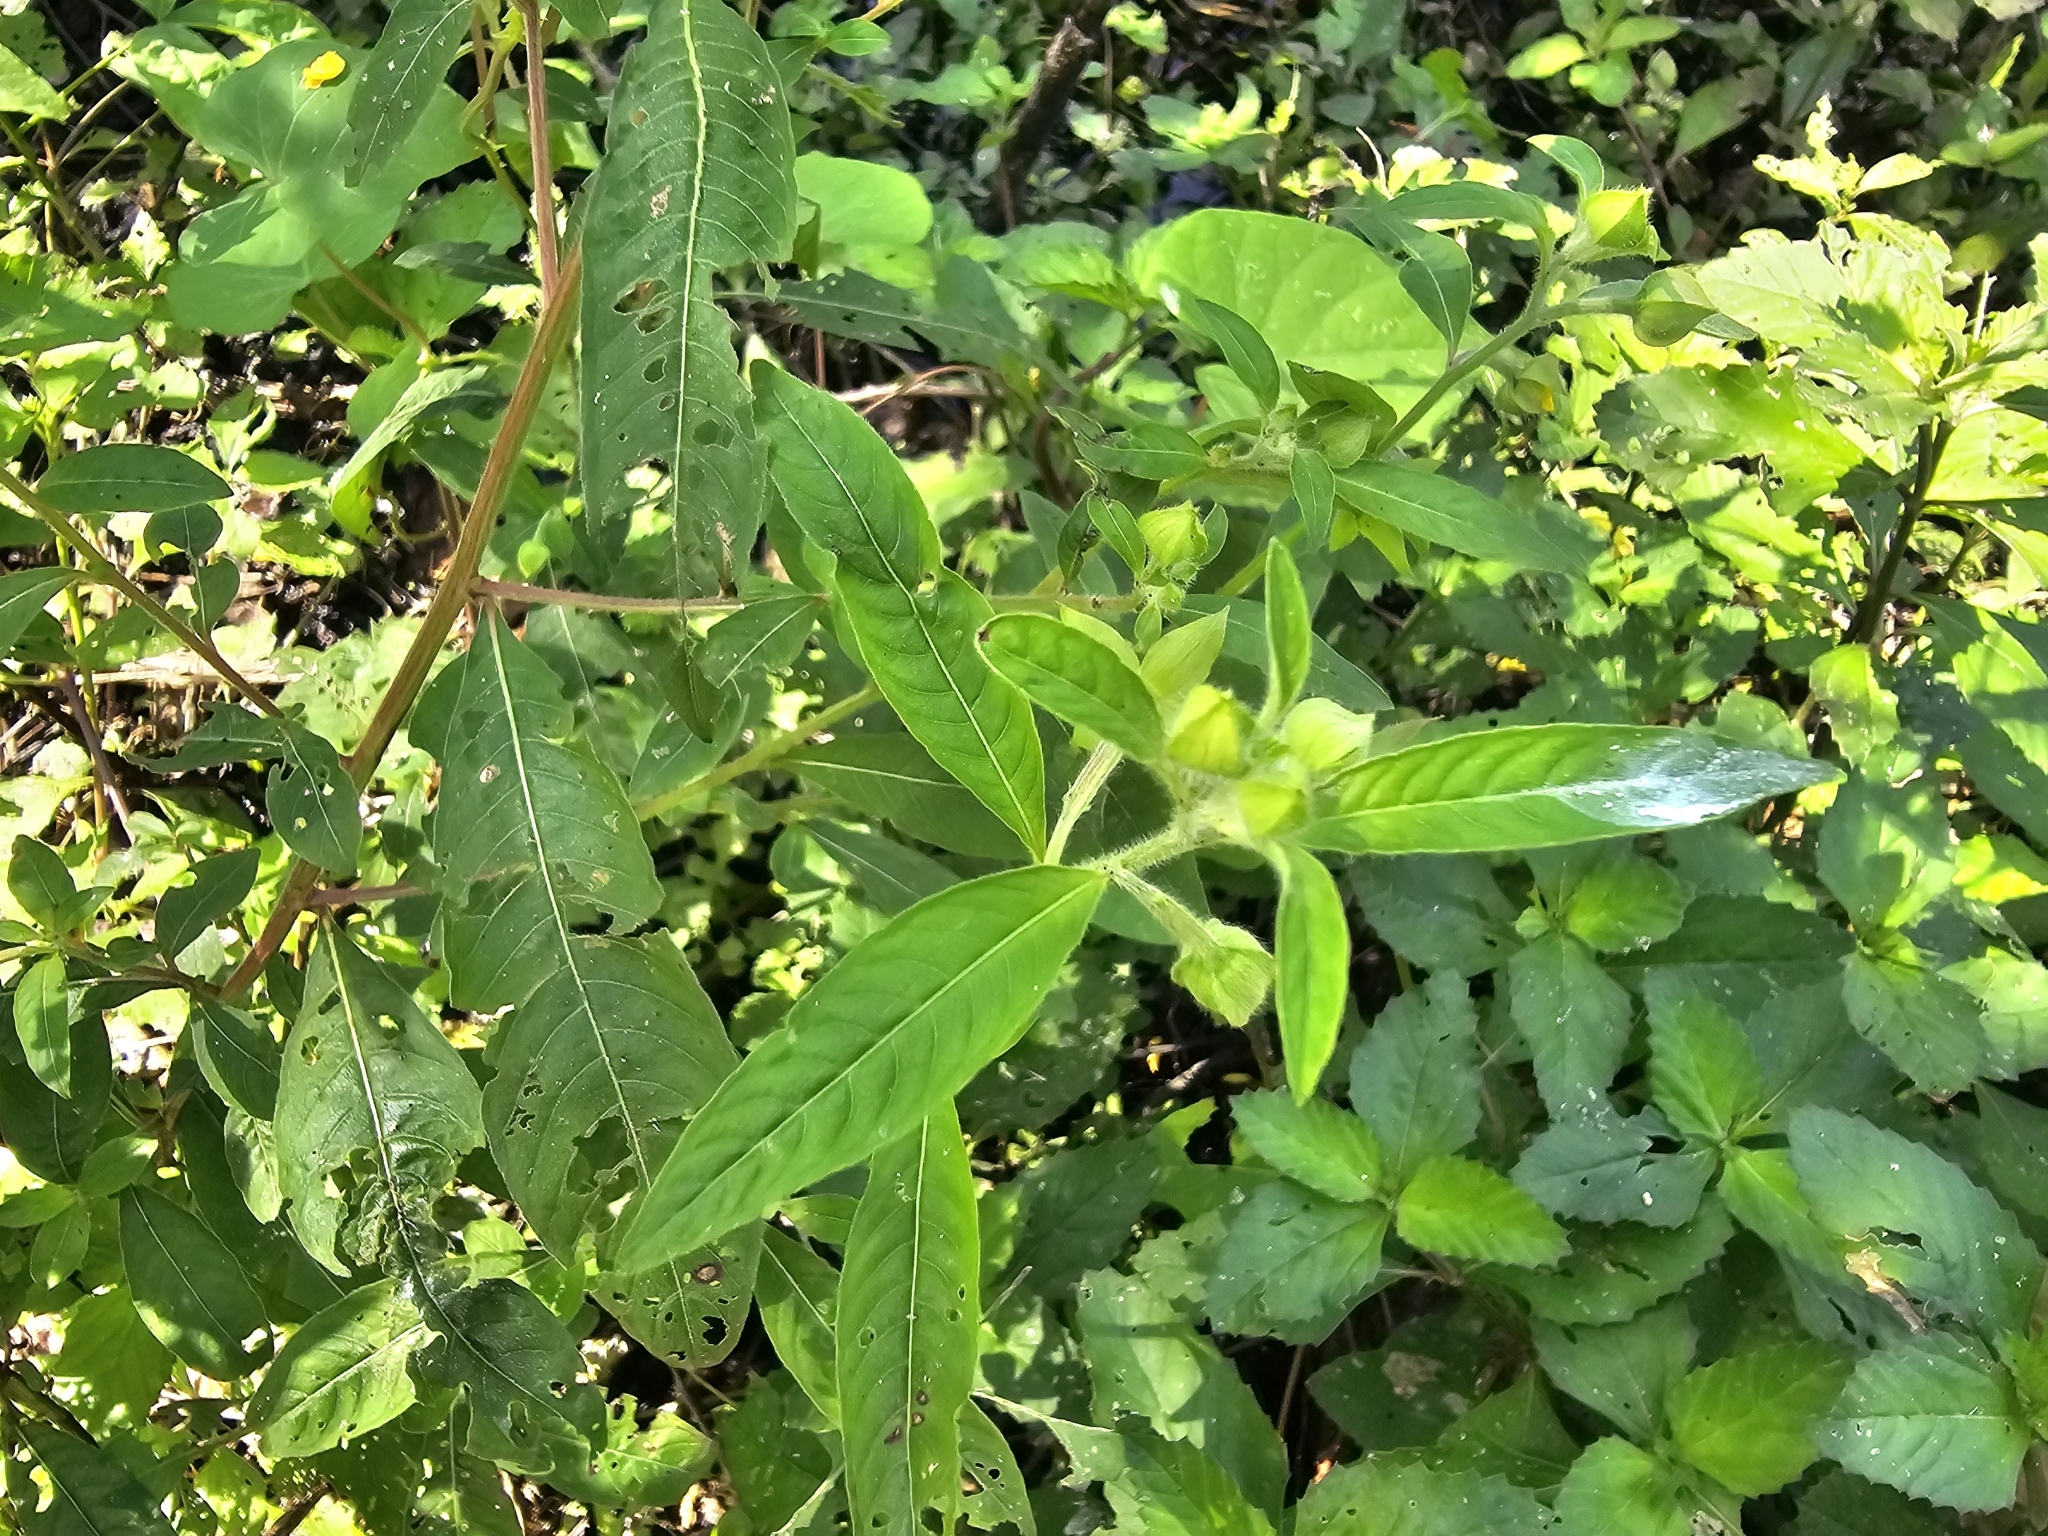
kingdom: Plantae
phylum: Tracheophyta
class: Magnoliopsida
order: Myrtales
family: Onagraceae
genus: Ludwigia
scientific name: Ludwigia nervosa
